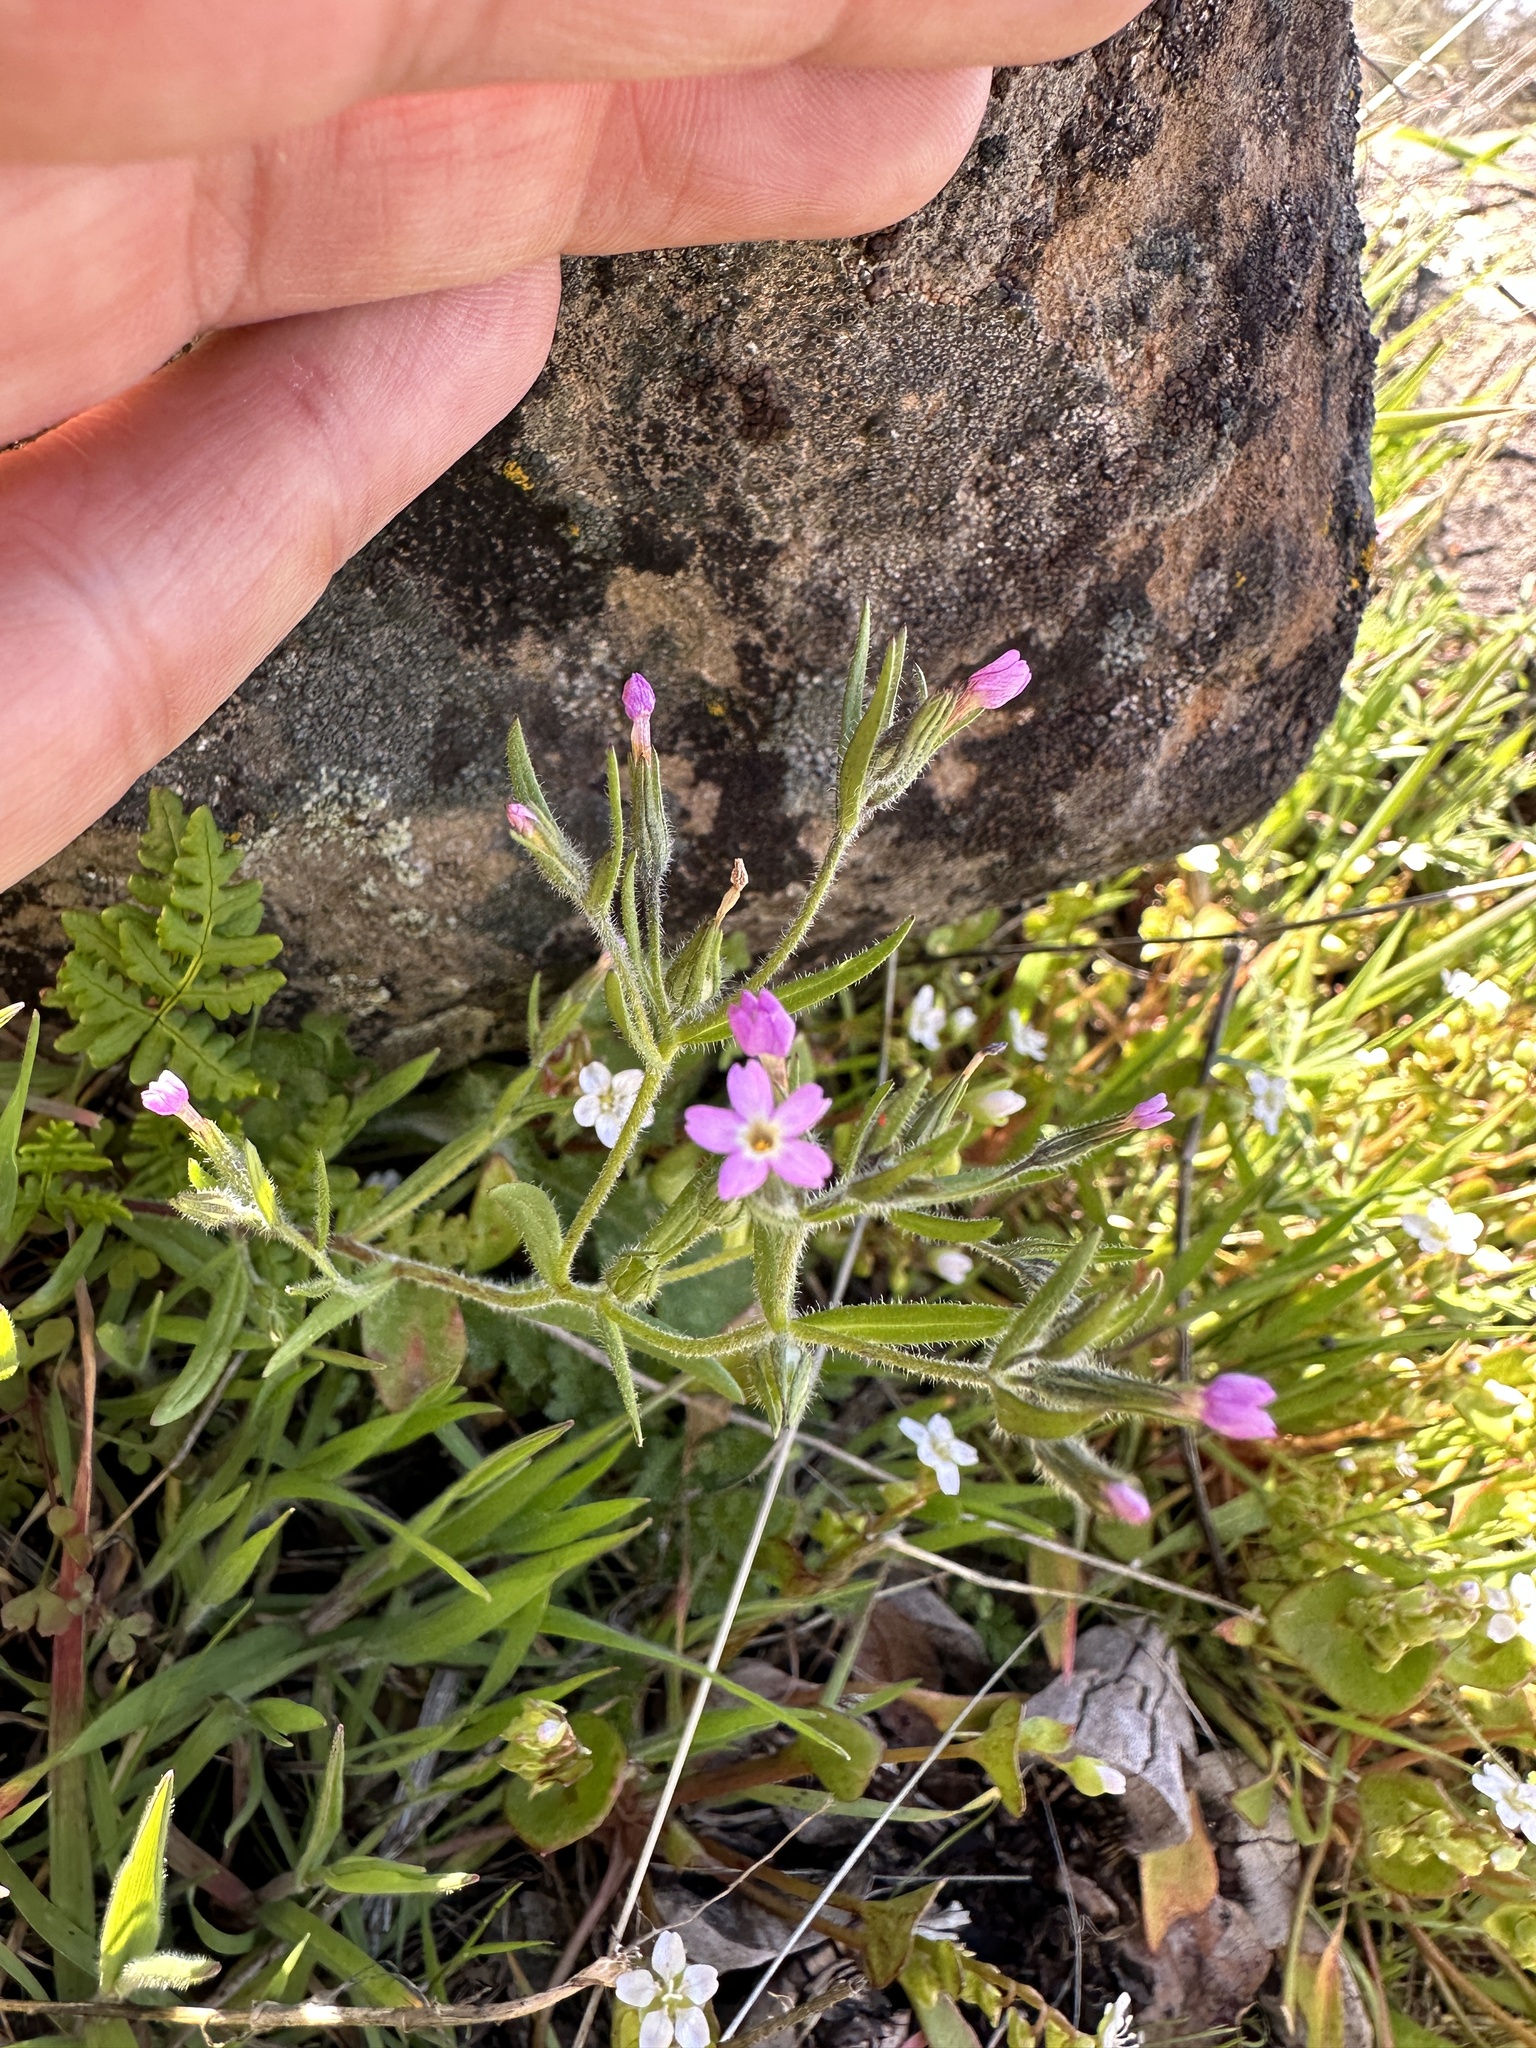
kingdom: Plantae
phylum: Tracheophyta
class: Magnoliopsida
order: Ericales
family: Polemoniaceae
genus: Phlox
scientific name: Phlox gracilis
